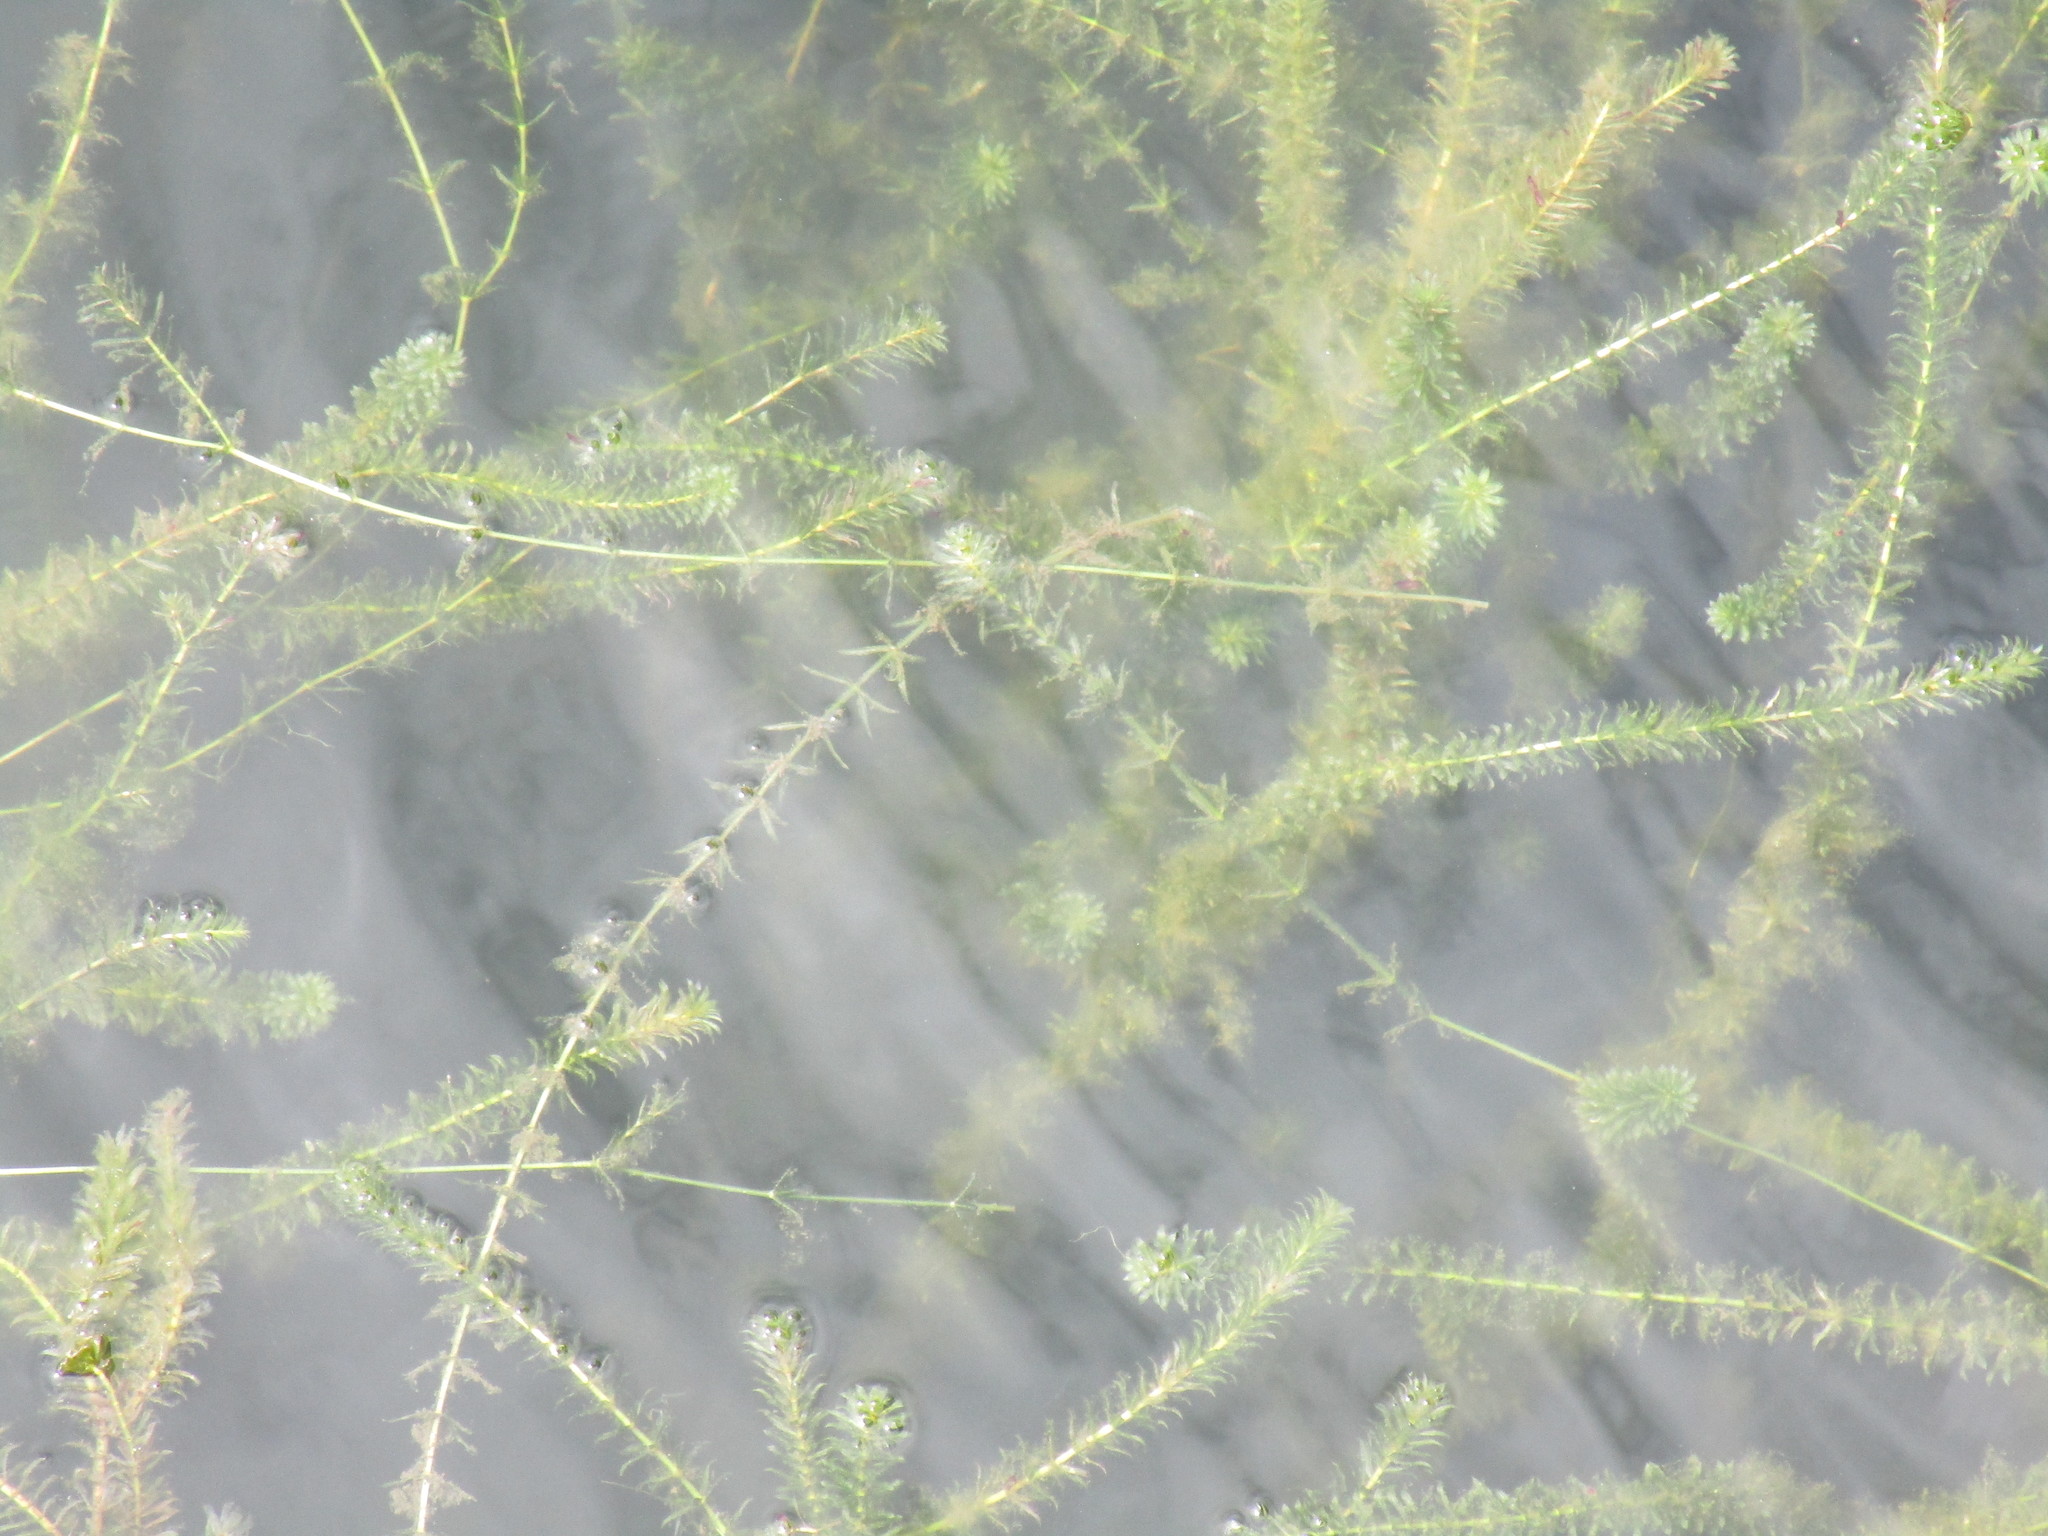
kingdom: Plantae
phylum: Tracheophyta
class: Liliopsida
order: Alismatales
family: Hydrocharitaceae
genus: Hydrilla
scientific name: Hydrilla verticillata
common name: Florida-elodea
